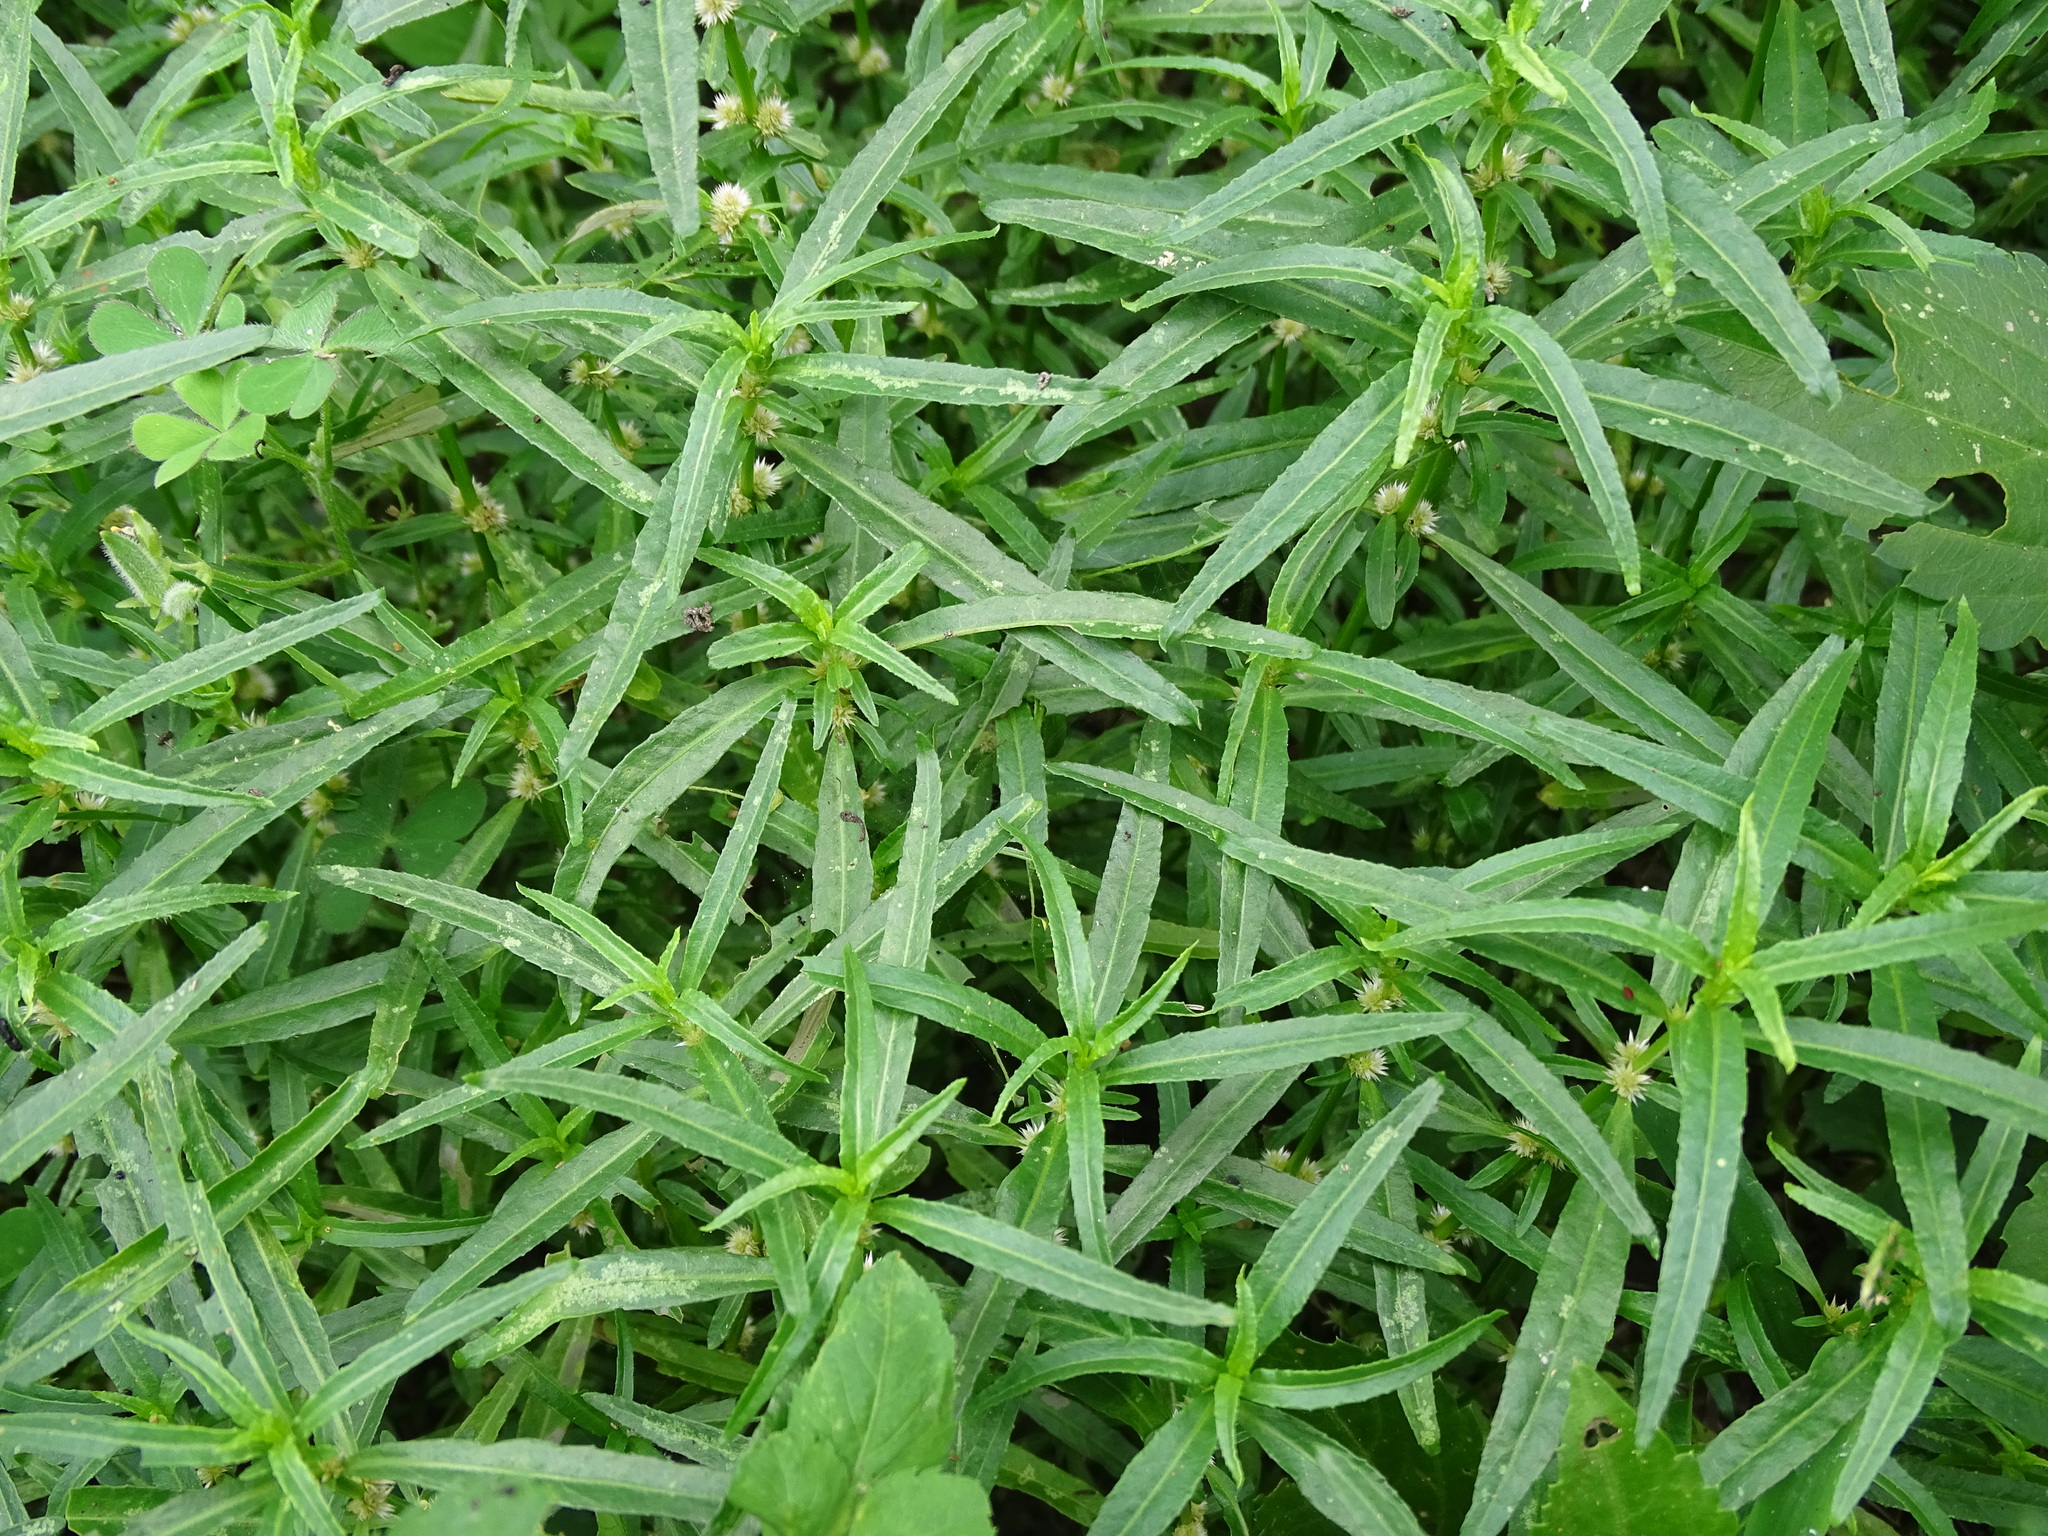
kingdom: Plantae
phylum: Tracheophyta
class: Magnoliopsida
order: Caryophyllales
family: Amaranthaceae
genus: Alternanthera
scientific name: Alternanthera sessilis
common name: Sessile joyweed
